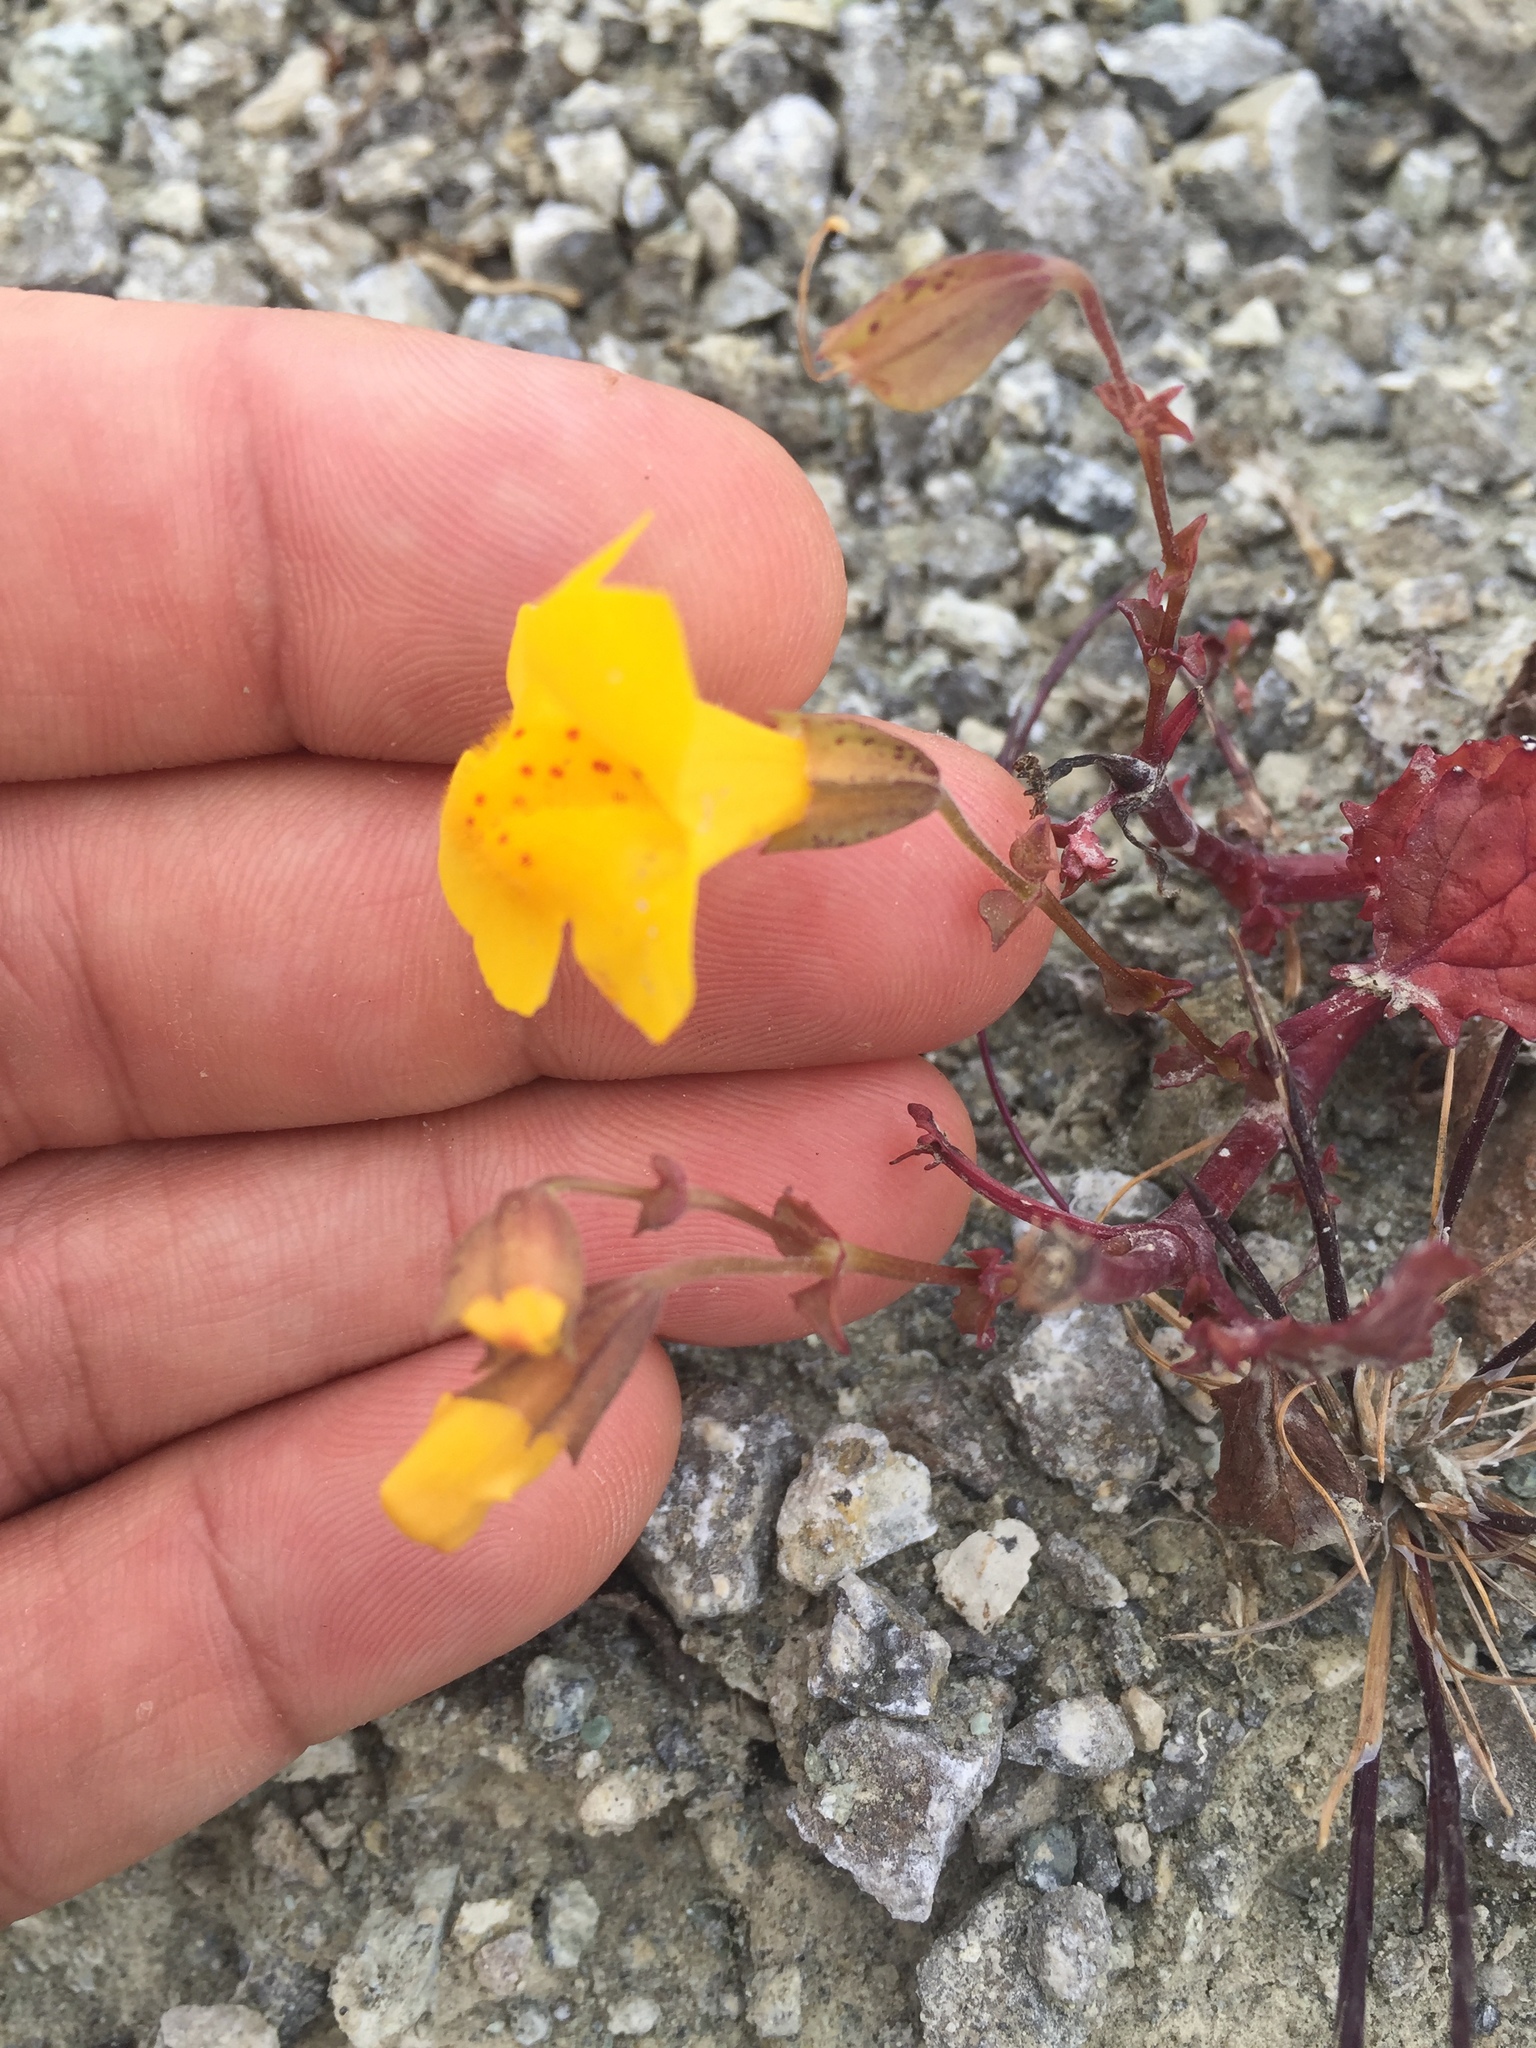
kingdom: Plantae
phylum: Tracheophyta
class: Magnoliopsida
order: Lamiales
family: Phrymaceae
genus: Erythranthe
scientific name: Erythranthe guttata
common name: Monkeyflower
